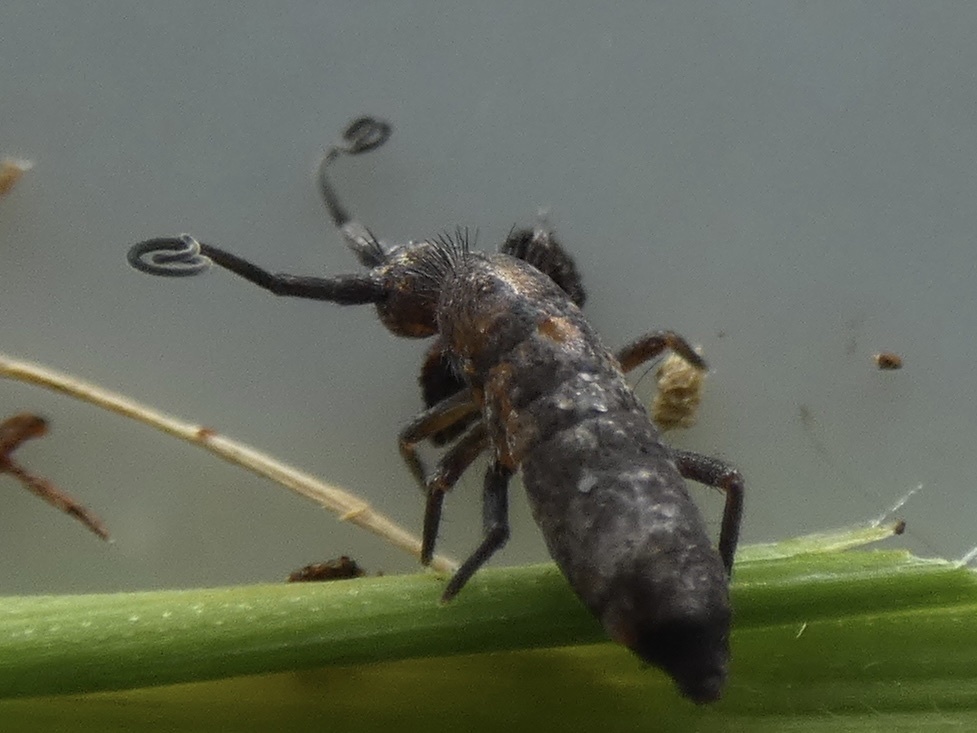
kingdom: Animalia
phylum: Arthropoda
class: Collembola
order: Entomobryomorpha
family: Tomoceridae
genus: Pogonognathellus
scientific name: Pogonognathellus longicornis
